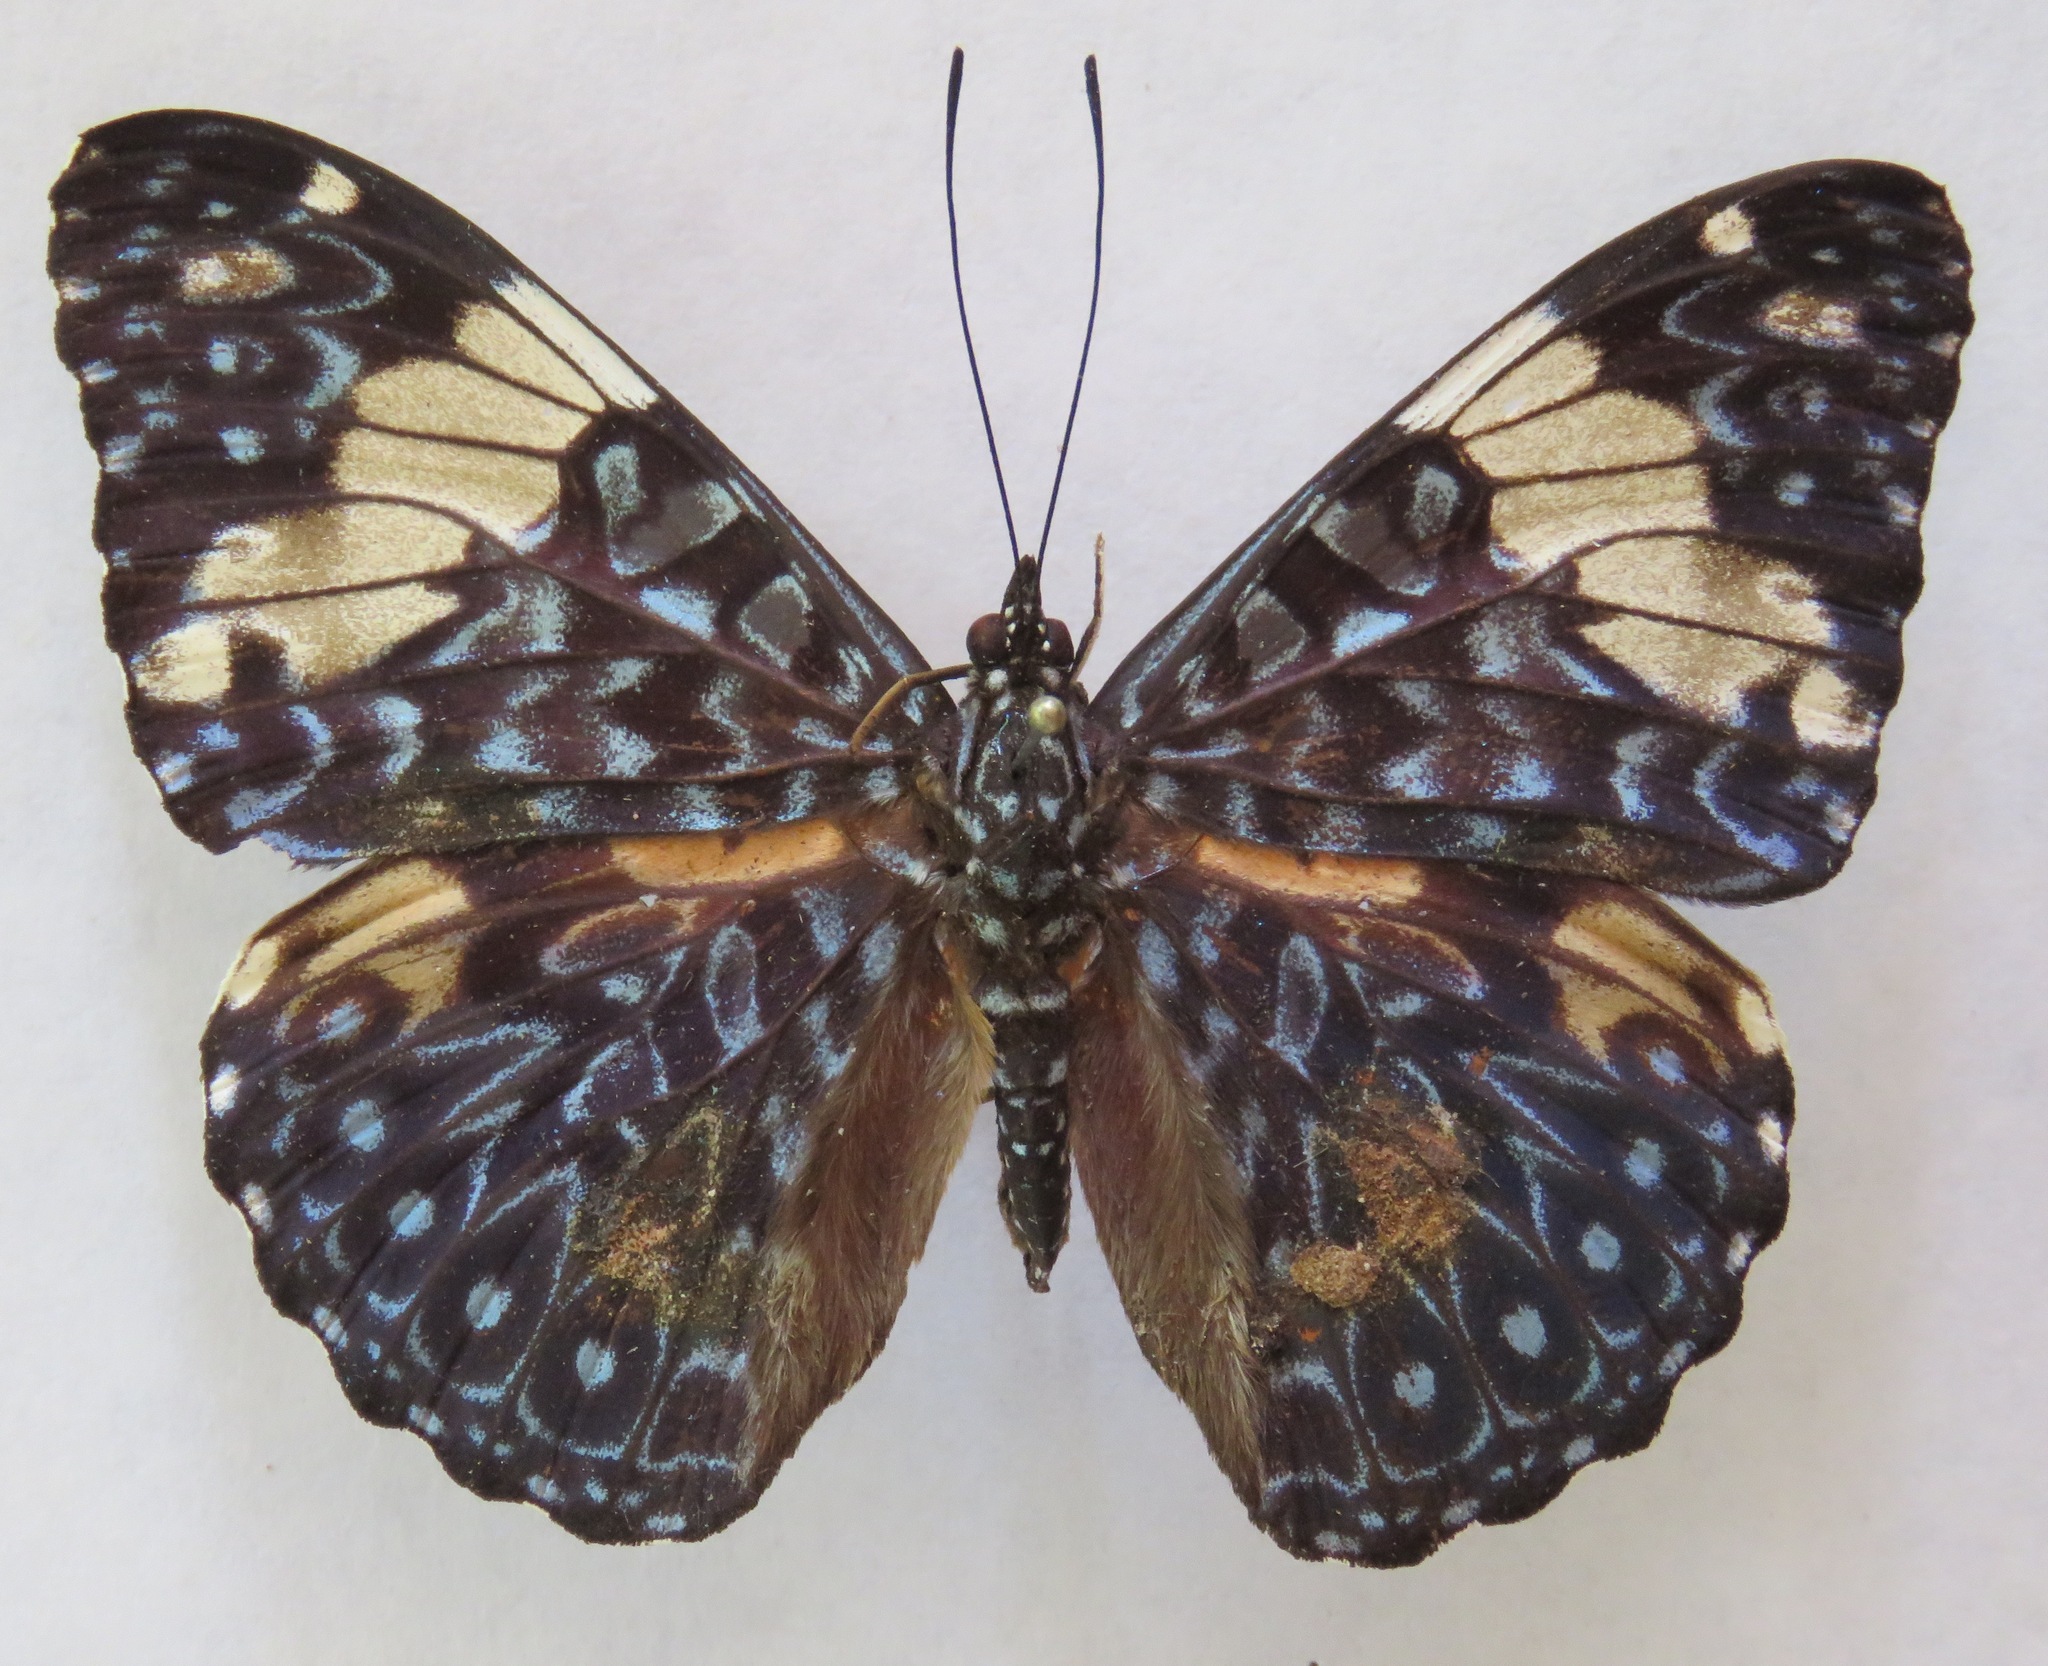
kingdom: Animalia
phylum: Arthropoda
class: Insecta
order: Lepidoptera
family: Nymphalidae
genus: Hamadryas
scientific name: Hamadryas amphinome
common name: Red cracker
